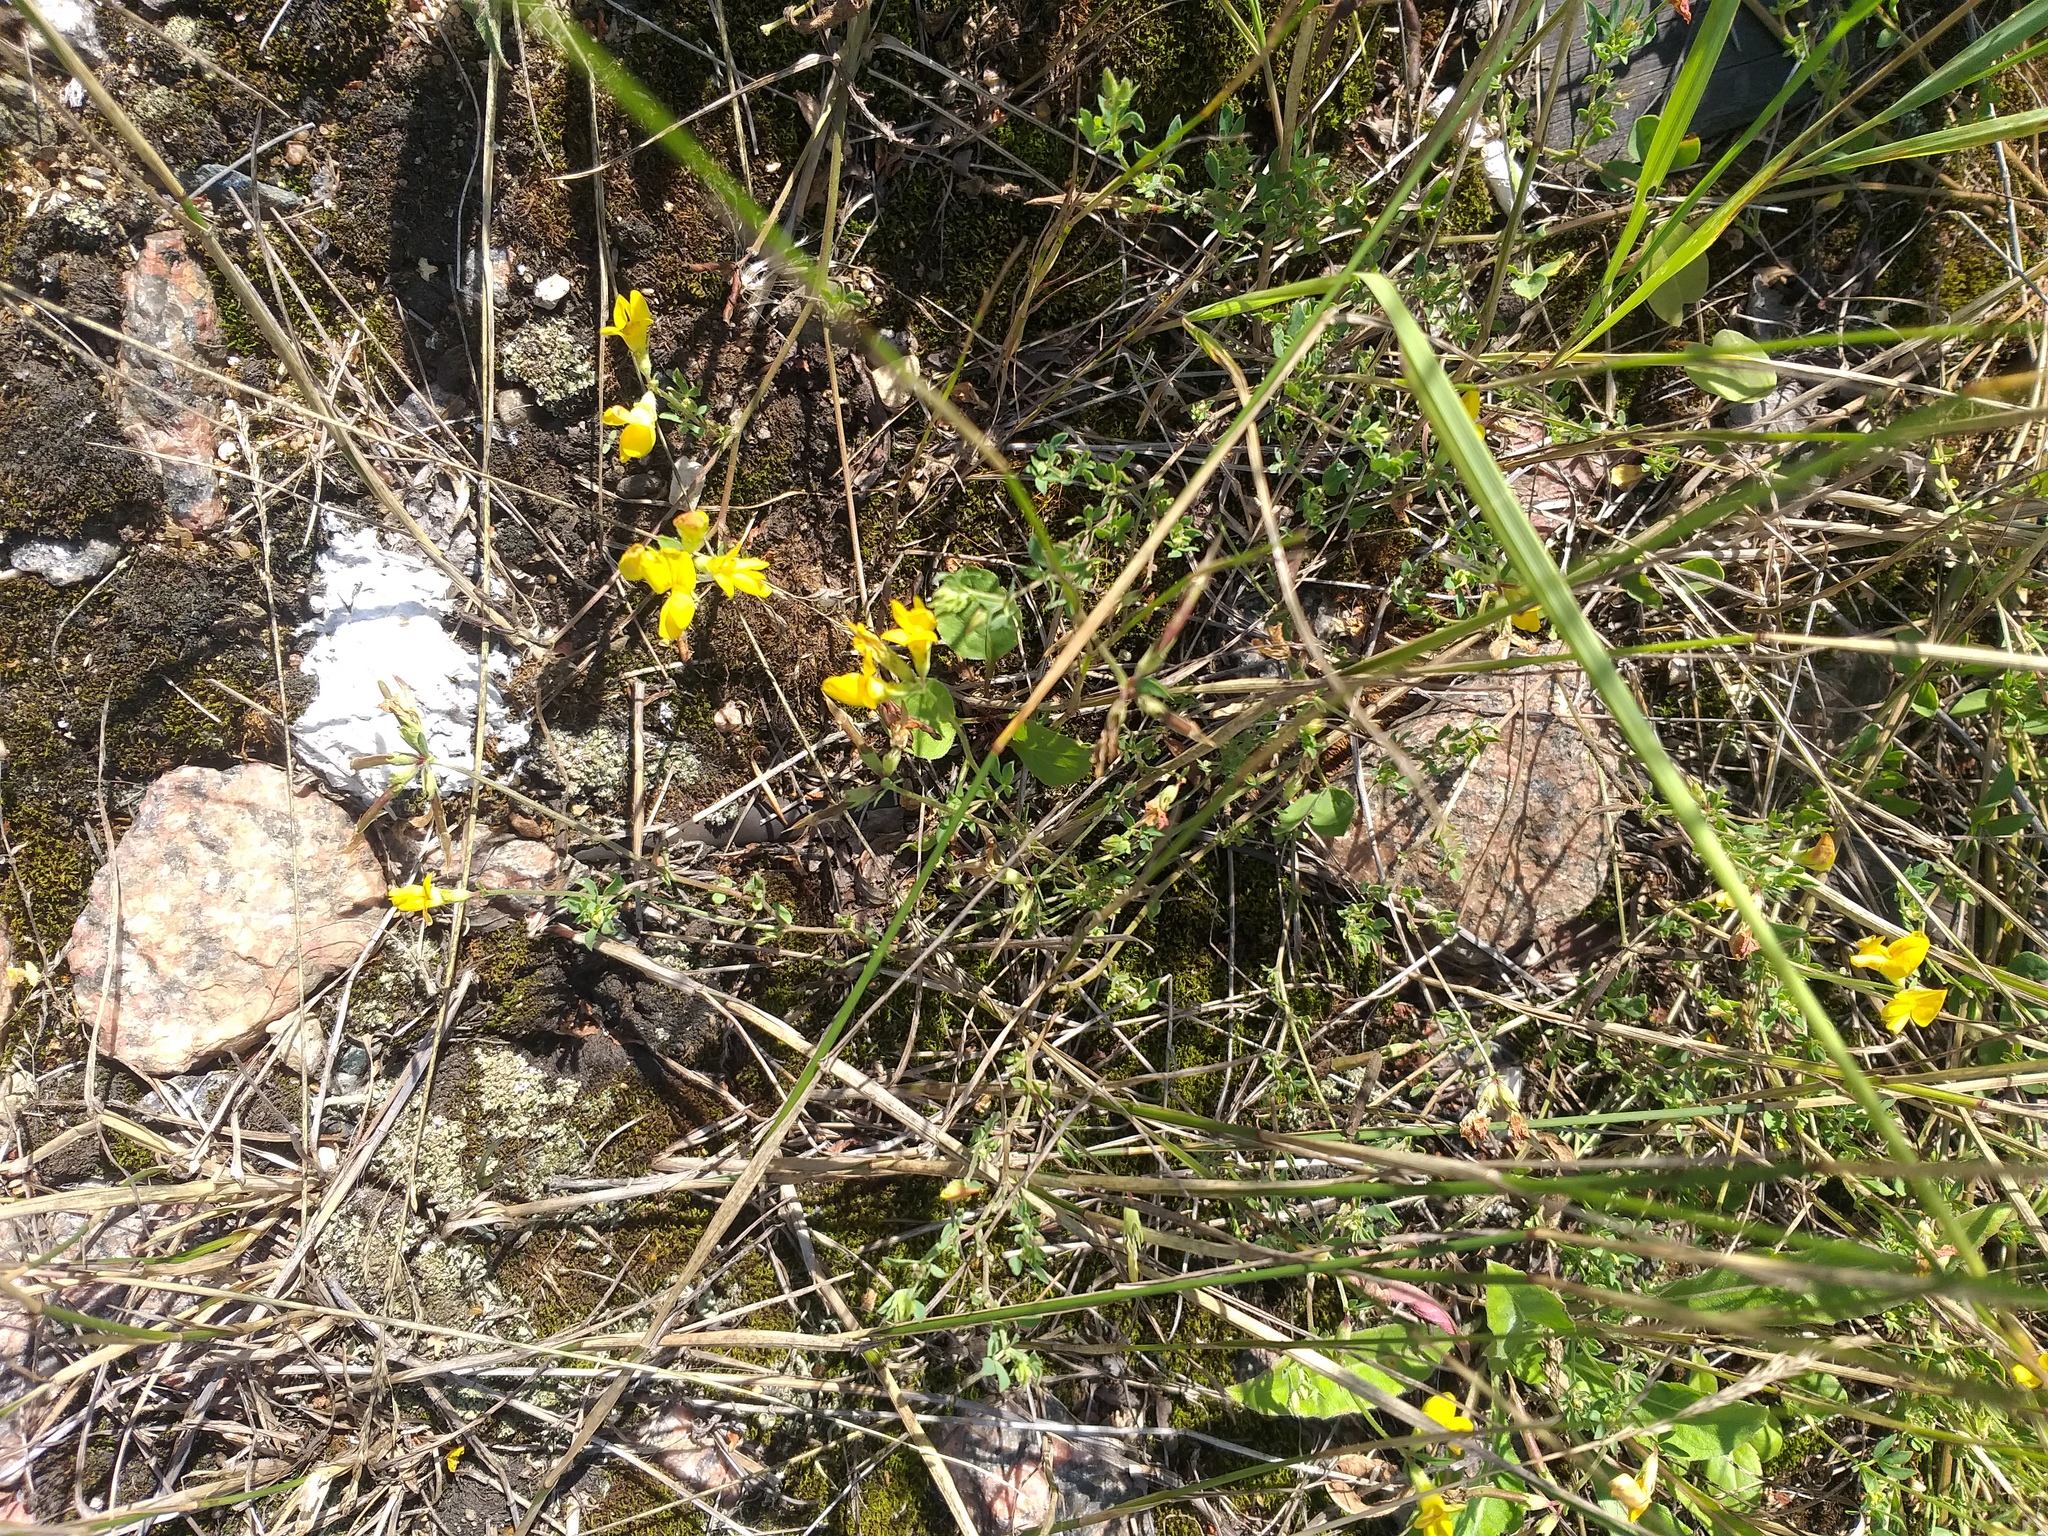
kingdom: Plantae
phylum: Tracheophyta
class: Magnoliopsida
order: Fabales
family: Fabaceae
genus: Lotus
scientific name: Lotus corniculatus
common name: Common bird's-foot-trefoil
